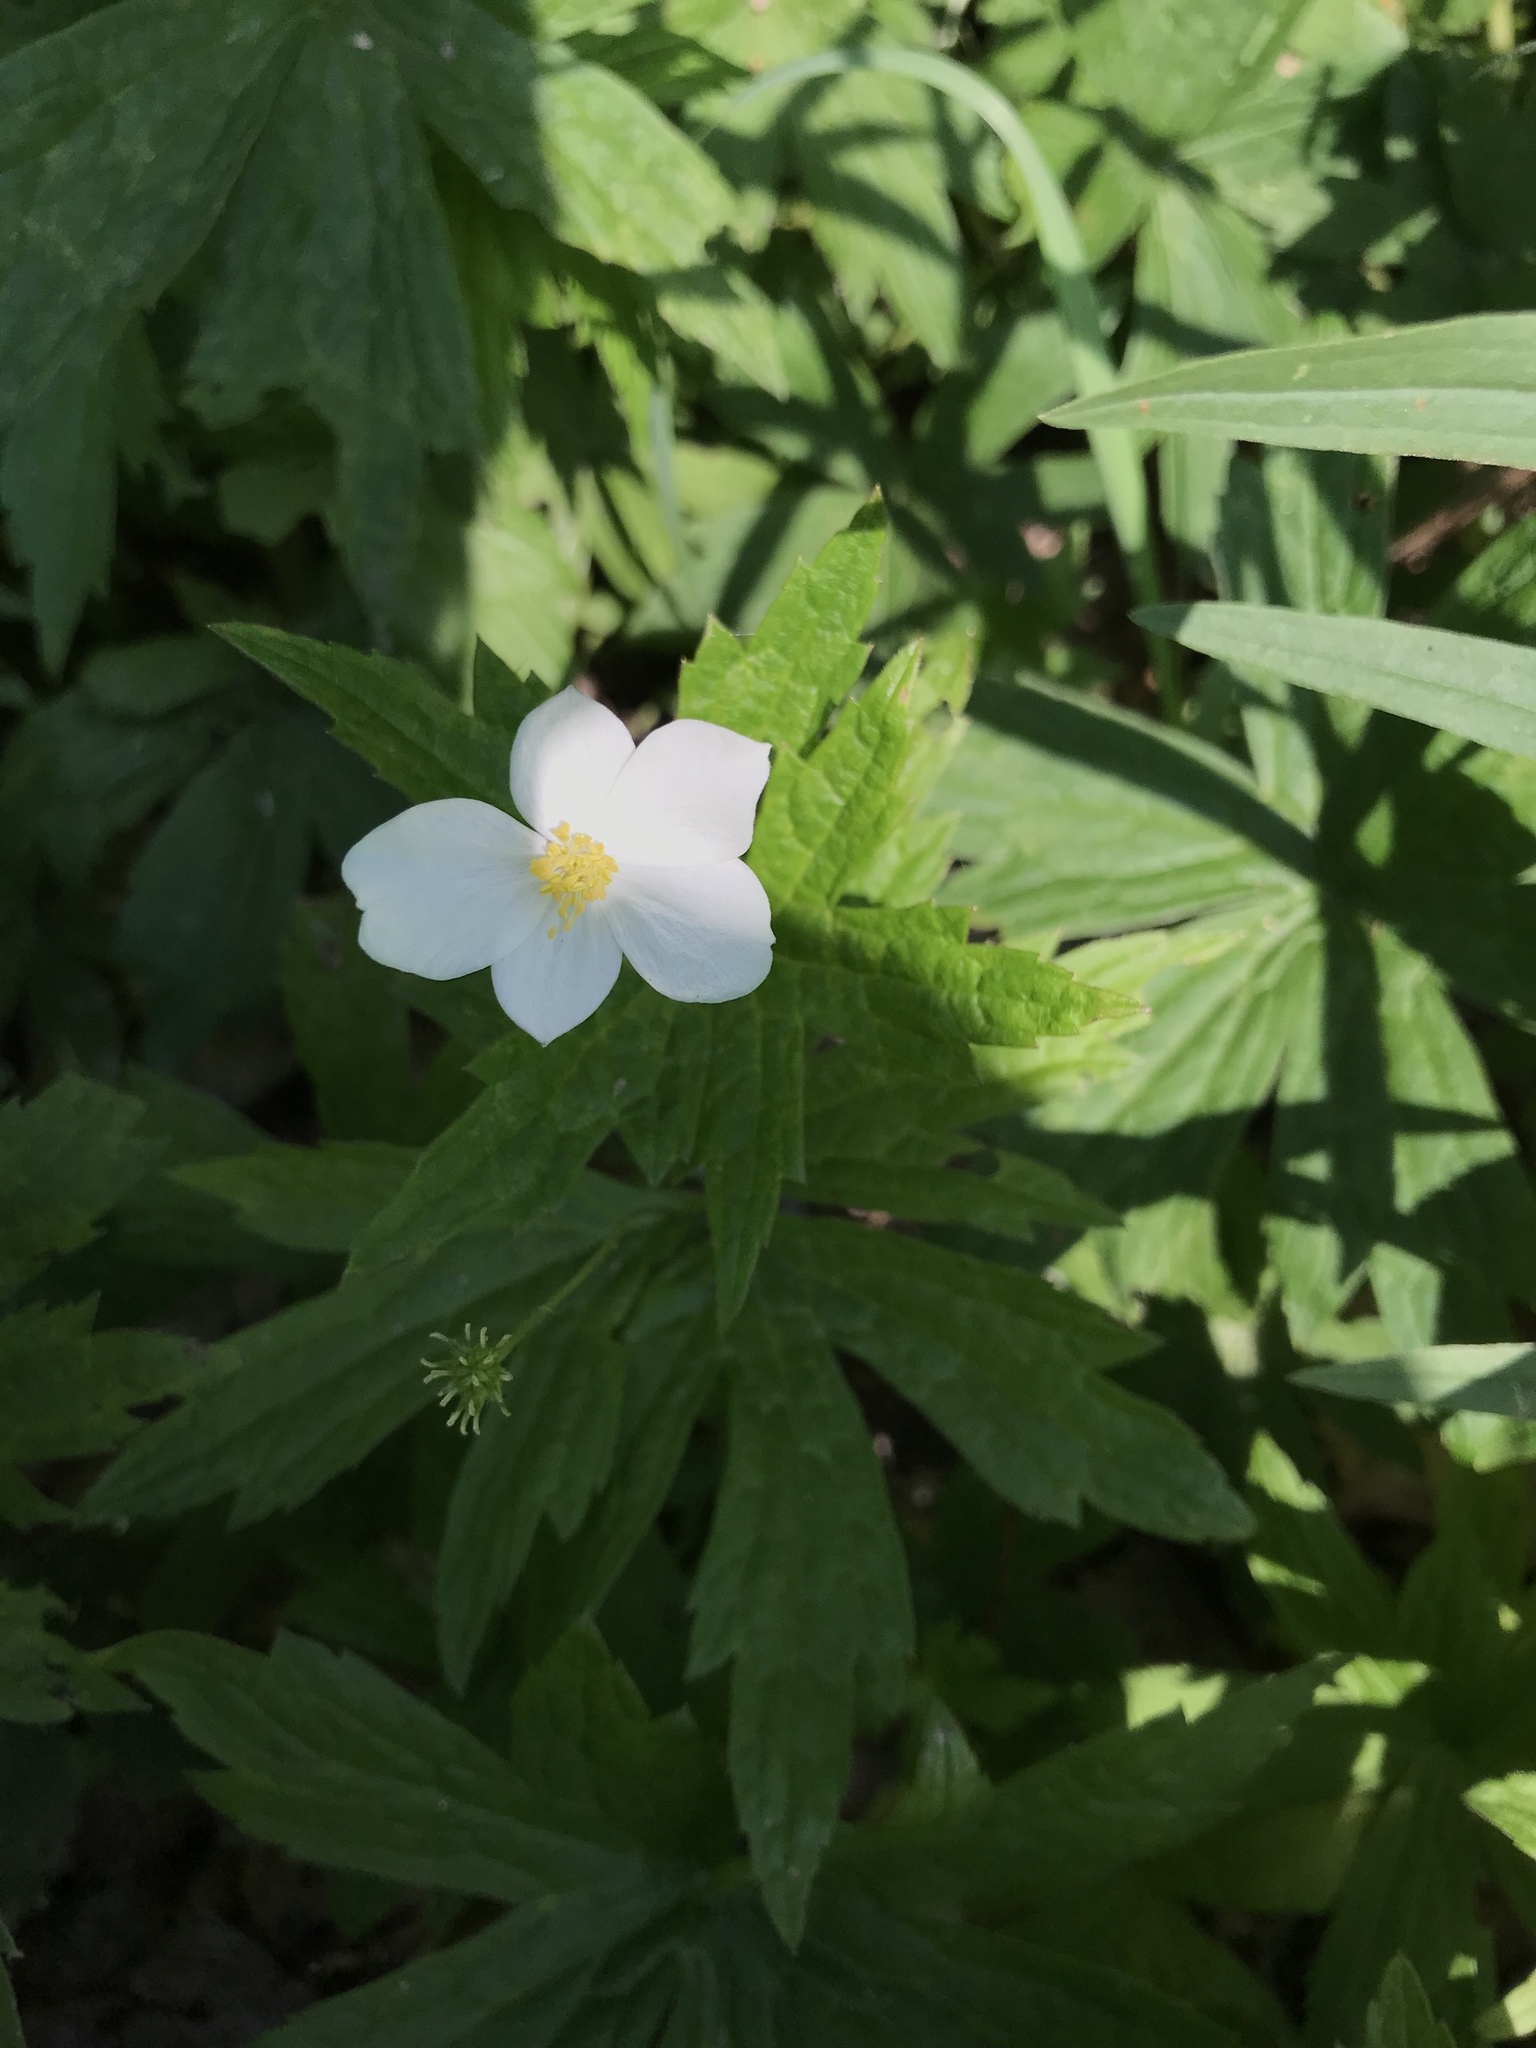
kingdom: Plantae
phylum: Tracheophyta
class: Magnoliopsida
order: Ranunculales
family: Ranunculaceae
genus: Anemonastrum
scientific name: Anemonastrum canadense
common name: Canada anemone
